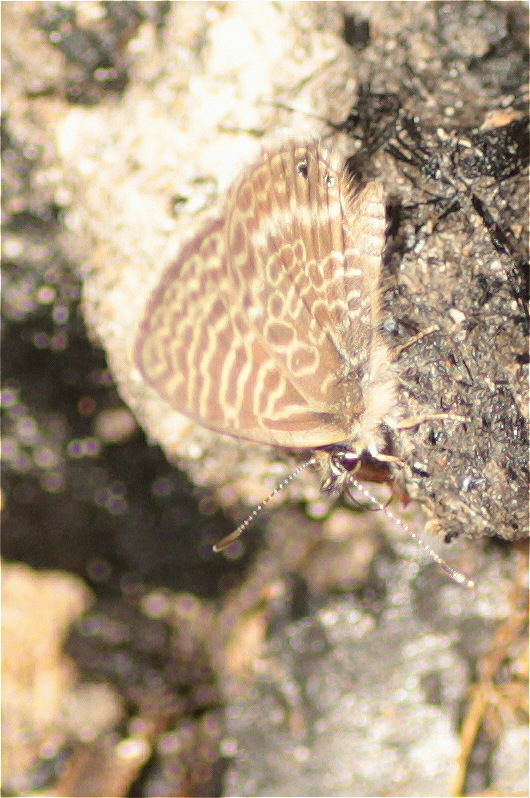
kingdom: Animalia
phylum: Arthropoda
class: Insecta
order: Lepidoptera
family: Lycaenidae
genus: Leptotes
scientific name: Leptotes
